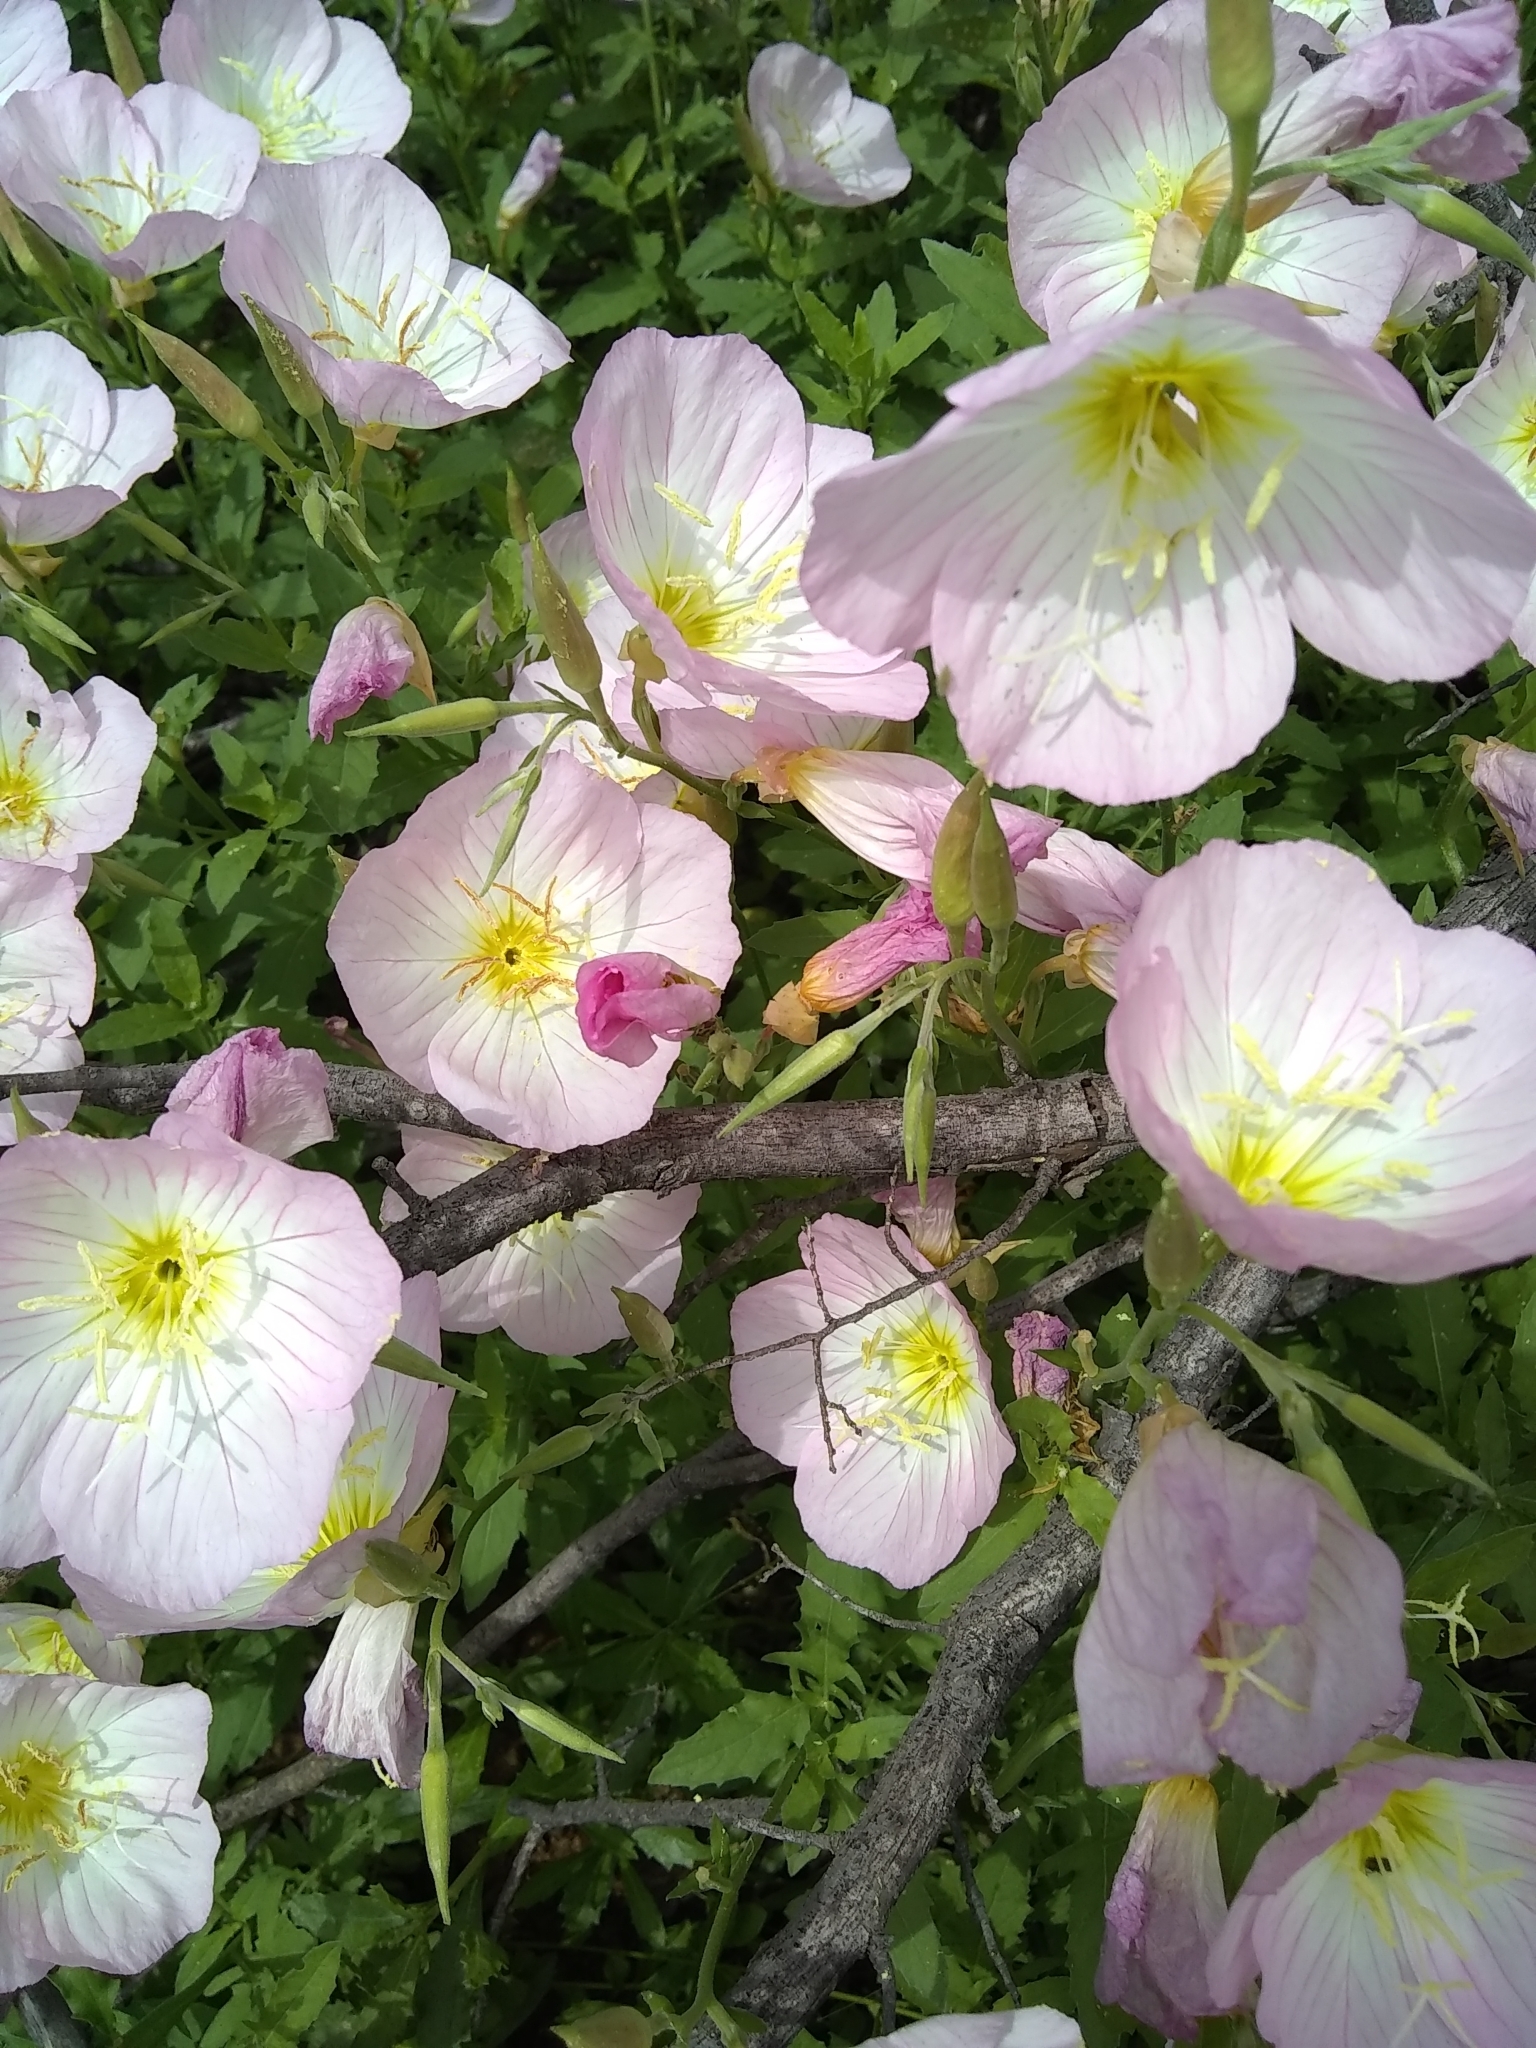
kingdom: Plantae
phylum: Tracheophyta
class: Magnoliopsida
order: Myrtales
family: Onagraceae
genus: Oenothera
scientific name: Oenothera speciosa
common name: White evening-primrose
